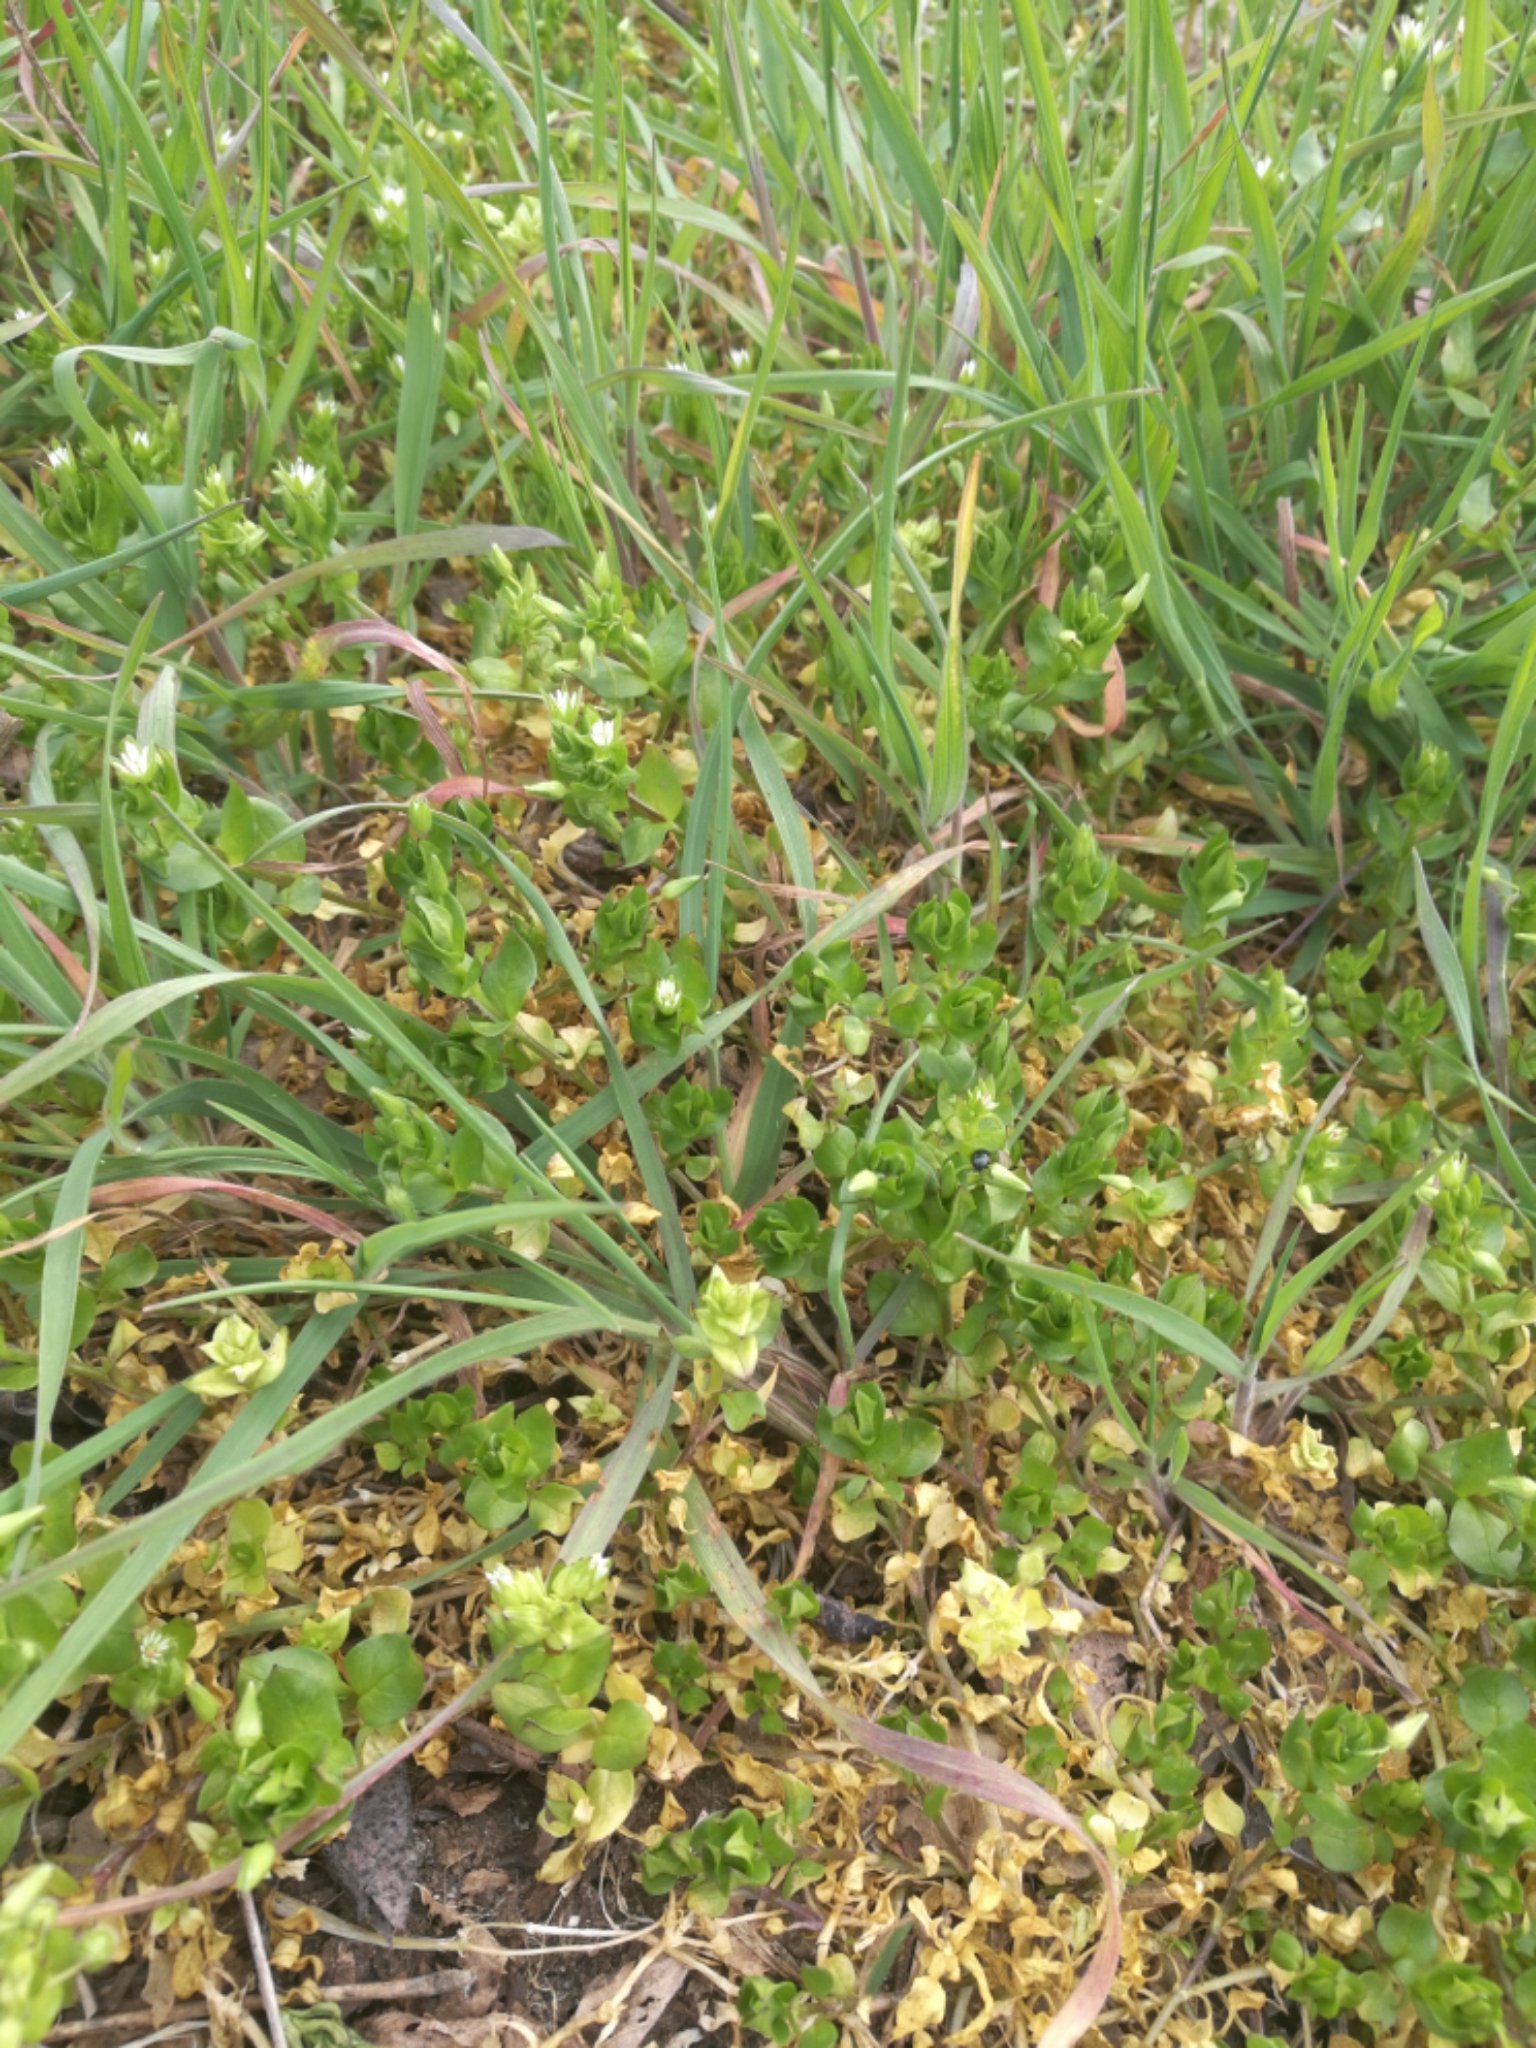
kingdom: Plantae
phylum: Tracheophyta
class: Magnoliopsida
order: Caryophyllales
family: Caryophyllaceae
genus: Stellaria
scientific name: Stellaria media
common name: Common chickweed
